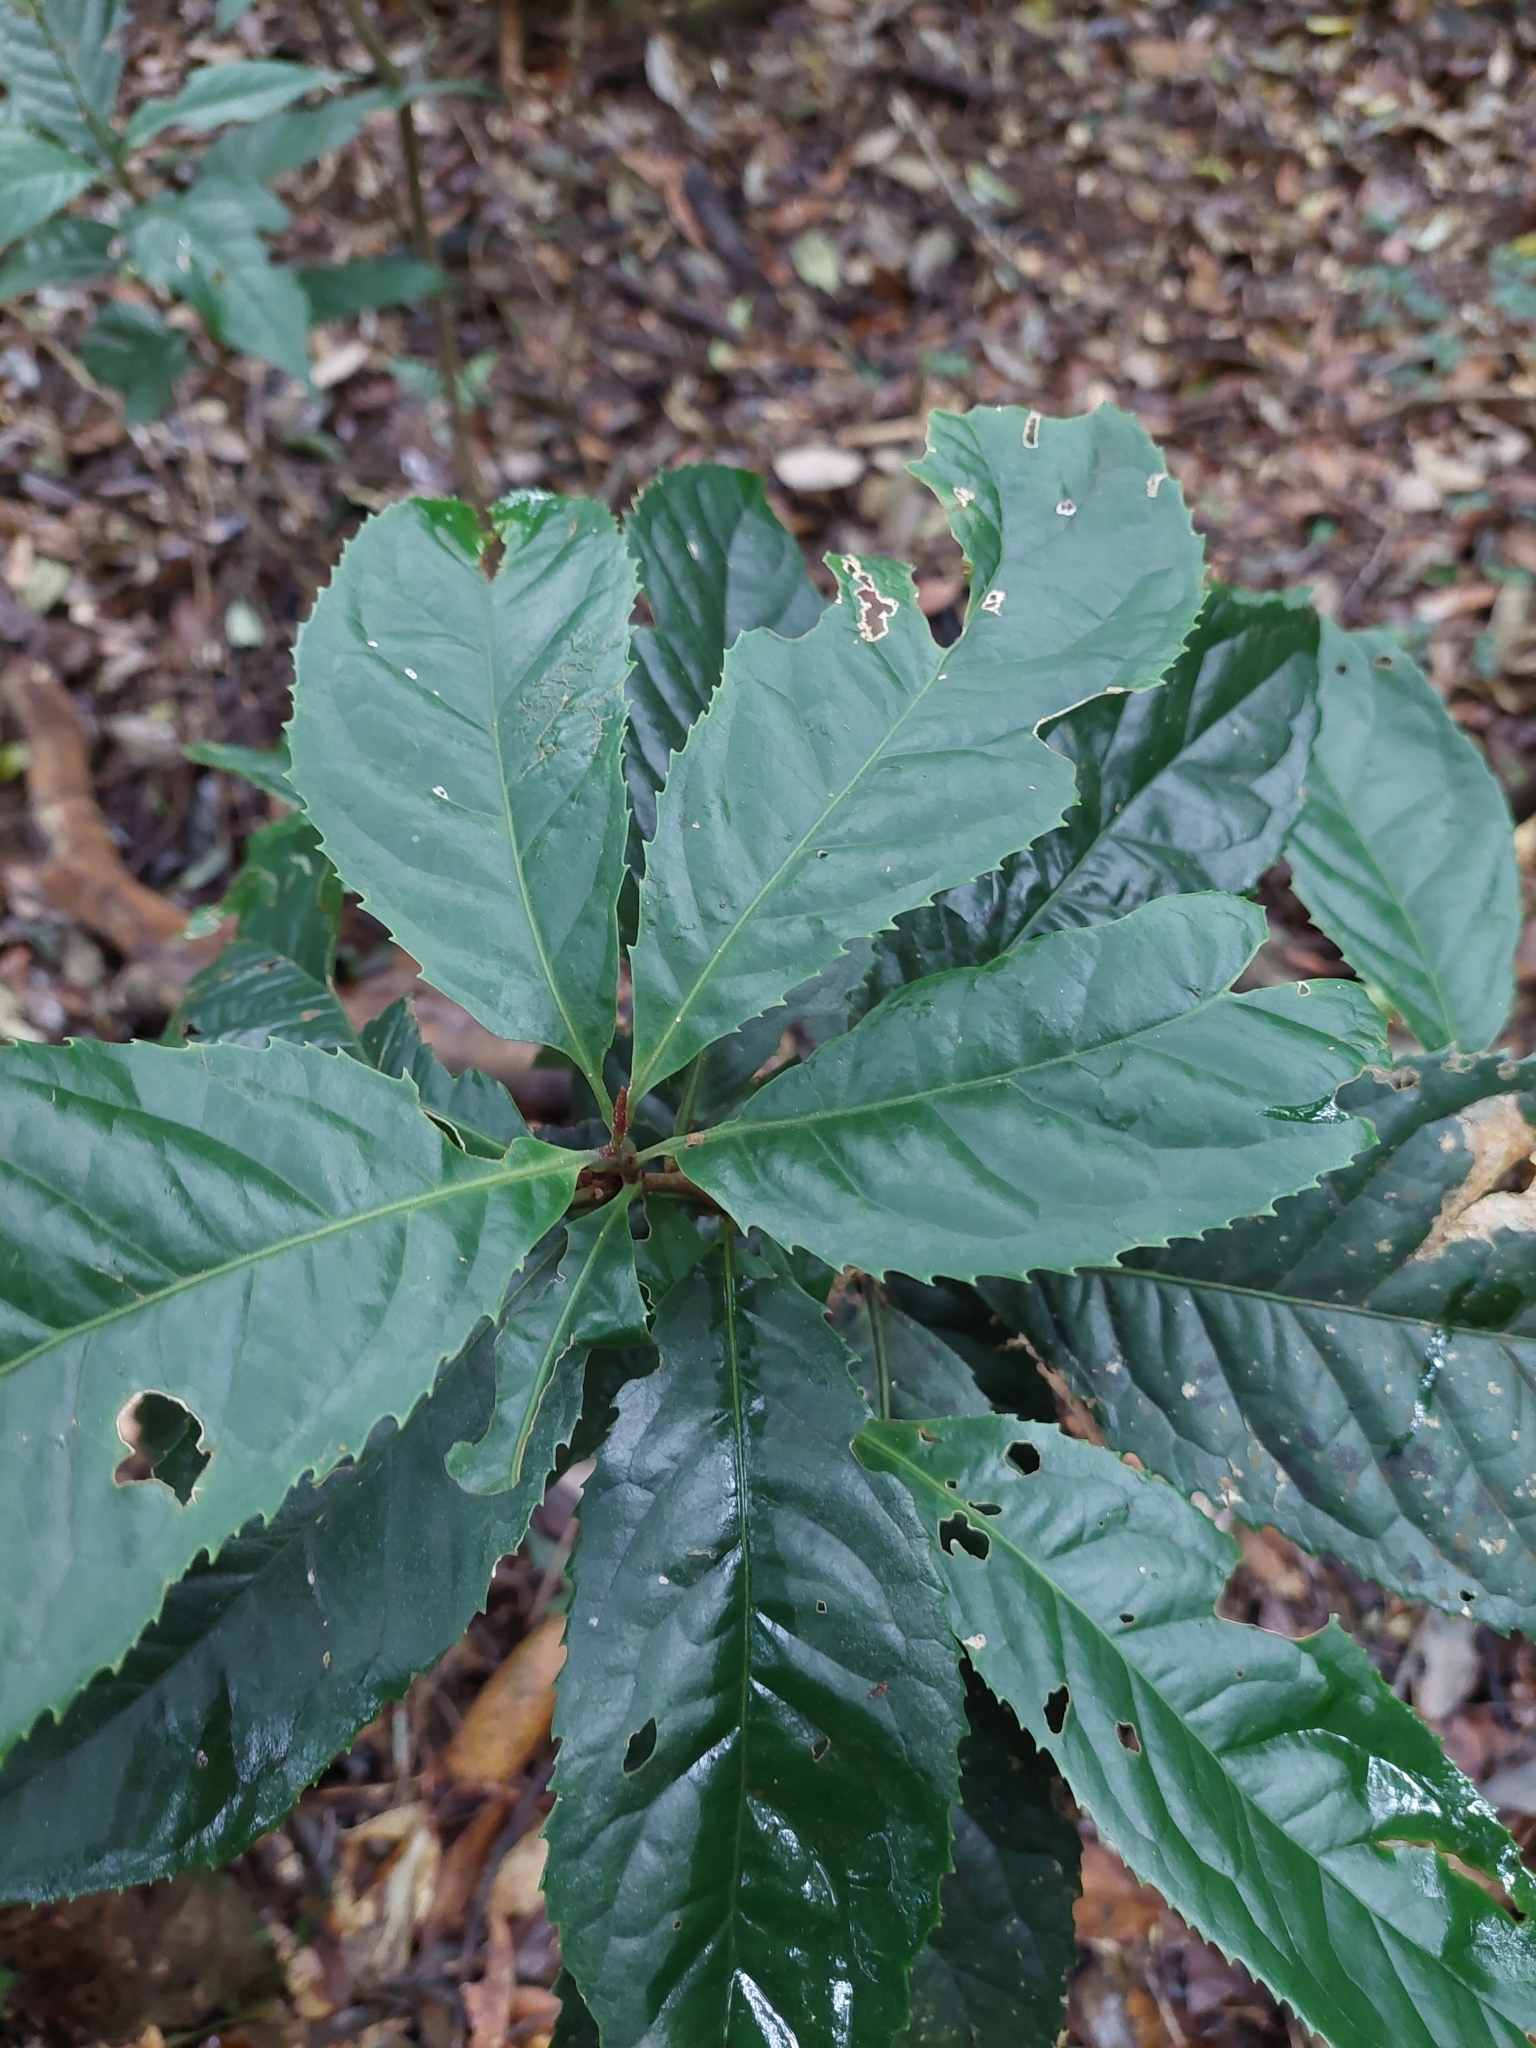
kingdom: Plantae
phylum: Tracheophyta
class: Magnoliopsida
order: Proteales
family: Proteaceae
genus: Helicia
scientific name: Helicia formosana
